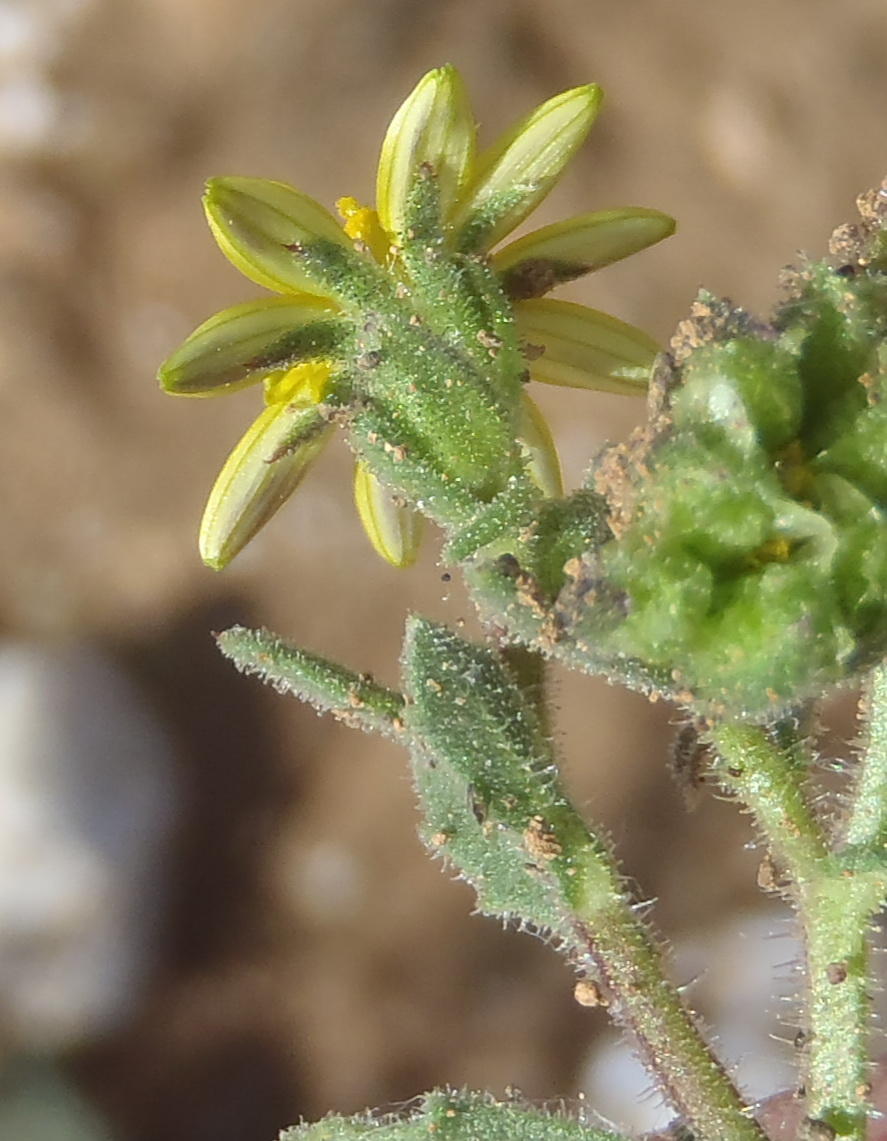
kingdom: Plantae
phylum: Tracheophyta
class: Magnoliopsida
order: Asterales
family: Asteraceae
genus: Osteospermum
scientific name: Osteospermum calendulaceum
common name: Stinking roger
